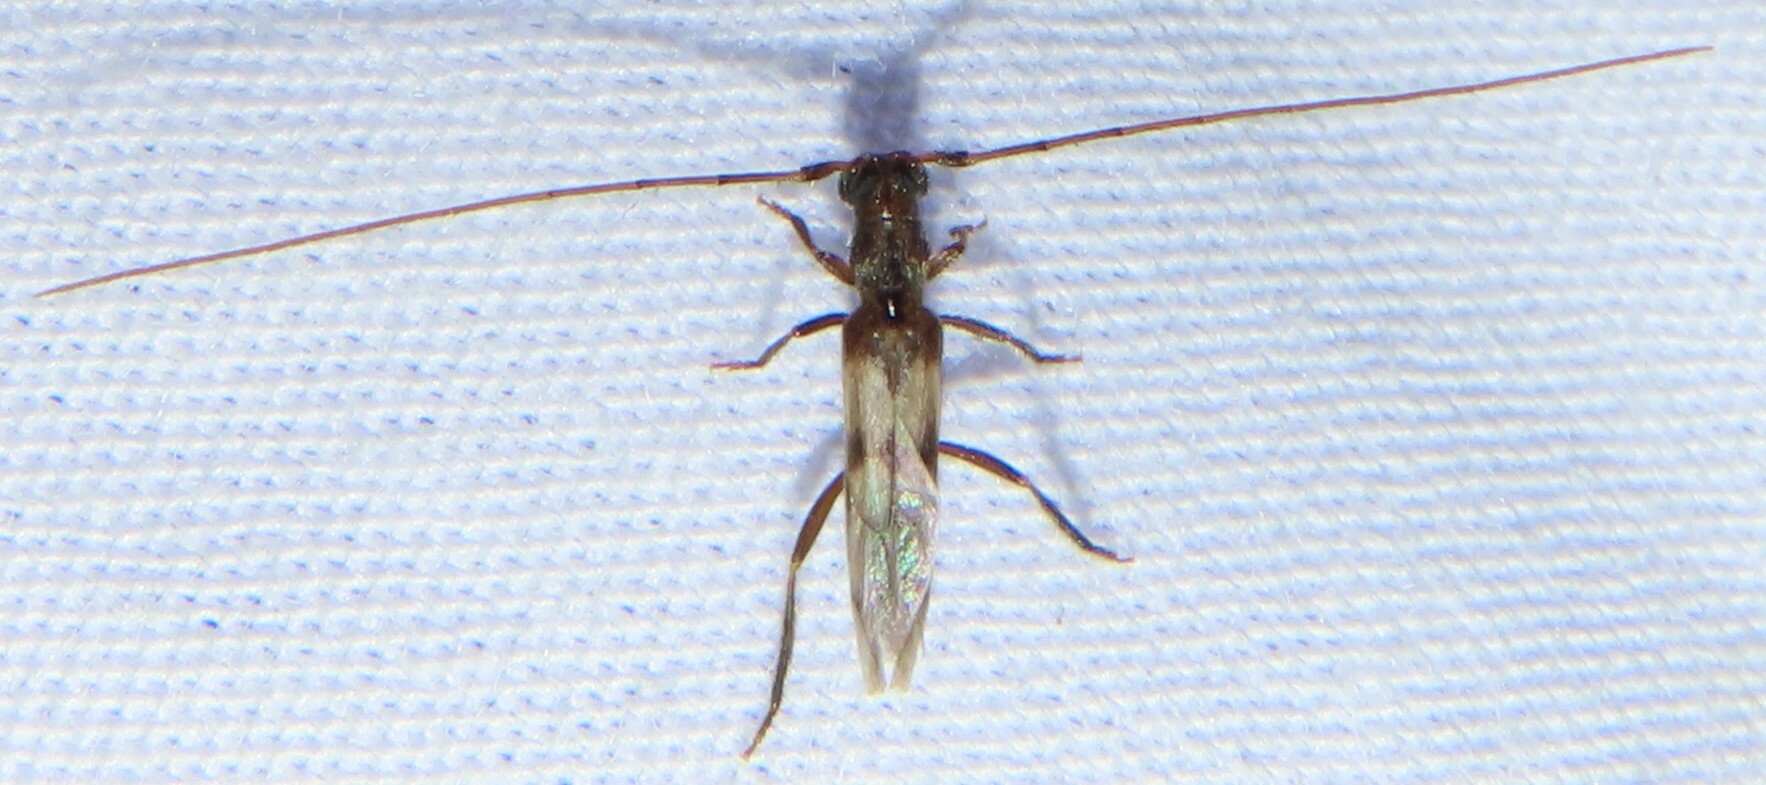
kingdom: Animalia
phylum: Arthropoda
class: Insecta
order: Coleoptera
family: Cerambycidae
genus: Methia
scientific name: Methia necydalea
